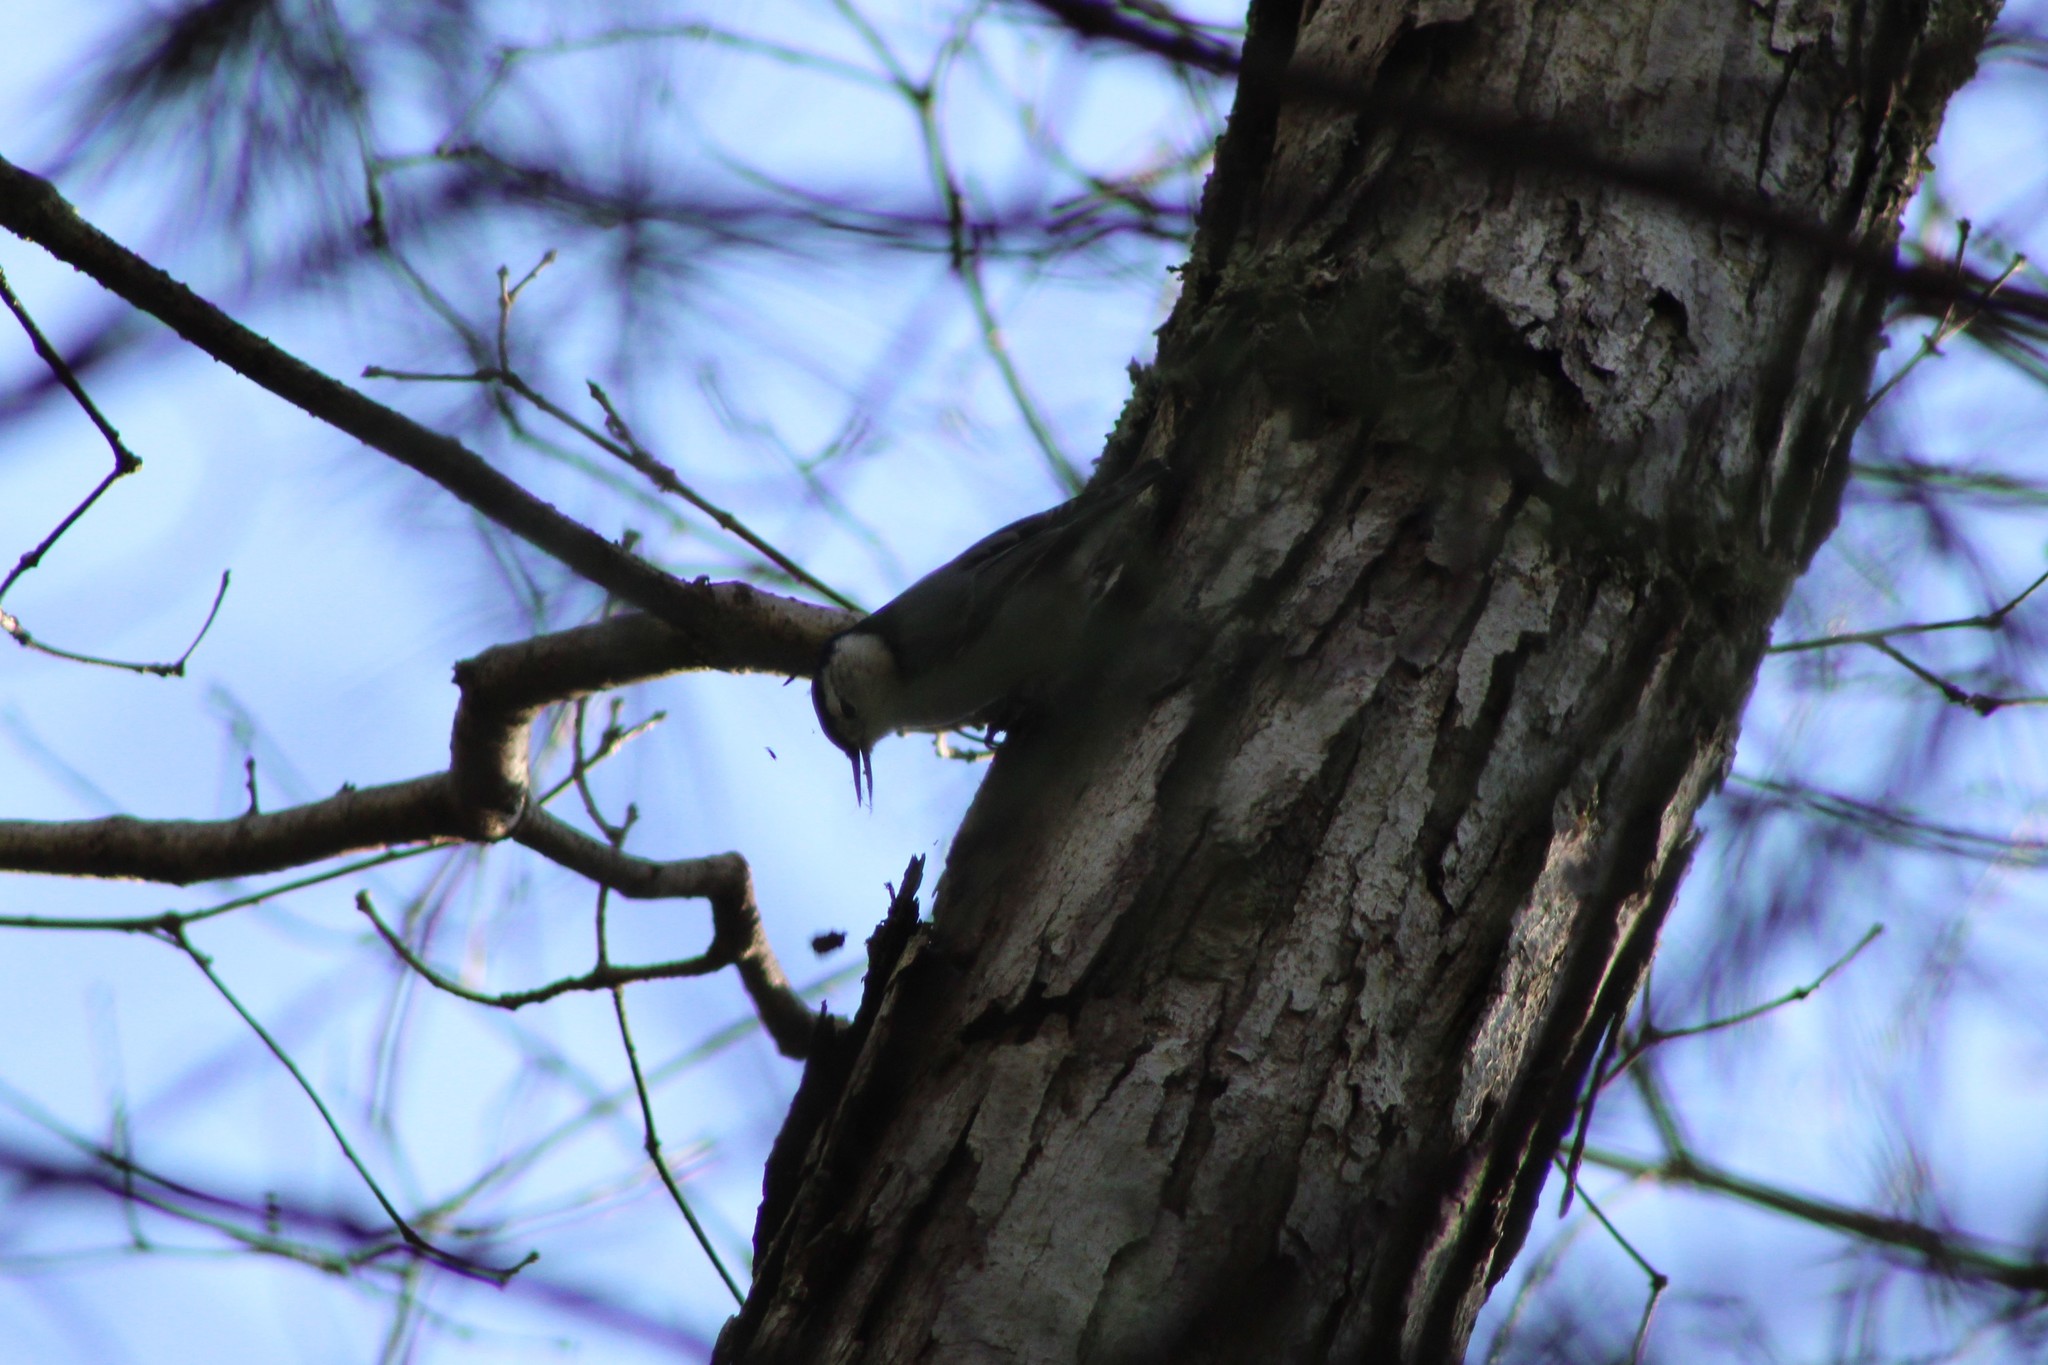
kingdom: Animalia
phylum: Chordata
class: Aves
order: Passeriformes
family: Sittidae
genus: Sitta
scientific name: Sitta carolinensis
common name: White-breasted nuthatch
